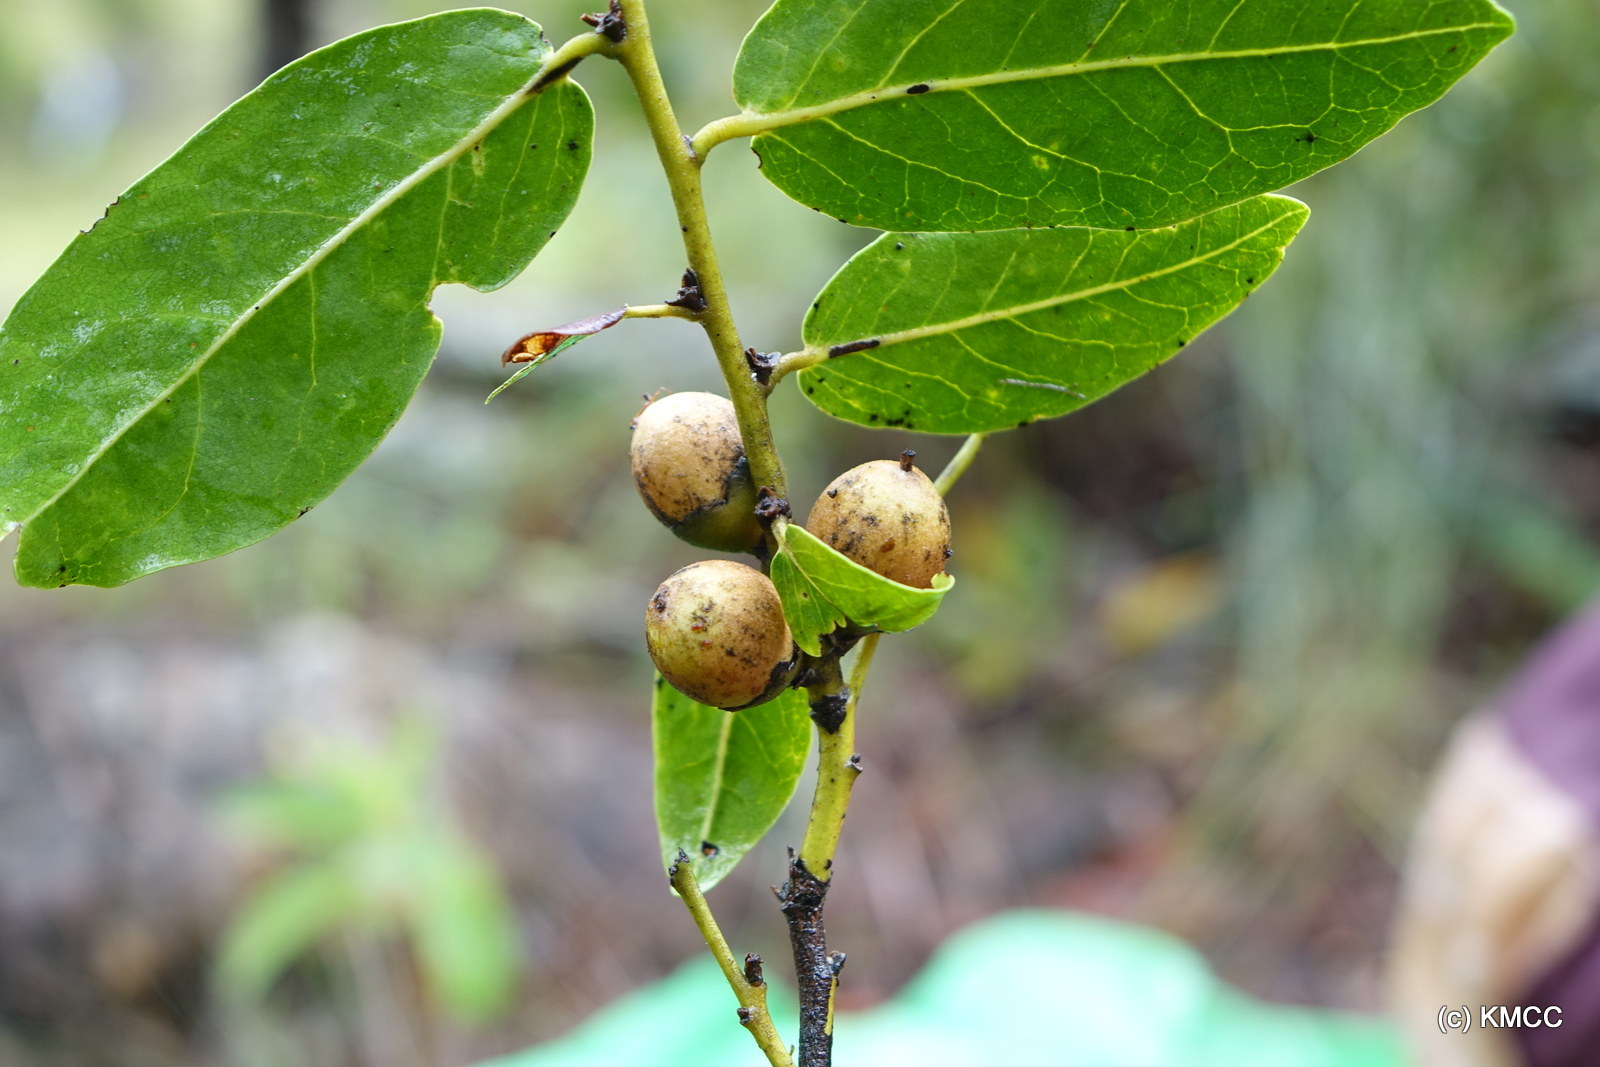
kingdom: Plantae
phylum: Tracheophyta
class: Magnoliopsida
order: Ericales
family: Ebenaceae
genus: Diospyros
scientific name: Diospyros cinnamomoides
